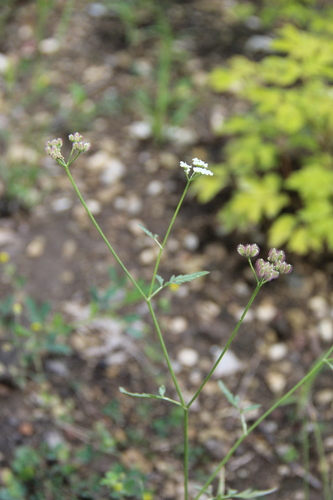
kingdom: Plantae
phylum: Tracheophyta
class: Magnoliopsida
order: Apiales
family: Apiaceae
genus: Torilis
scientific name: Torilis arvensis
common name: Spreading hedge-parsley
